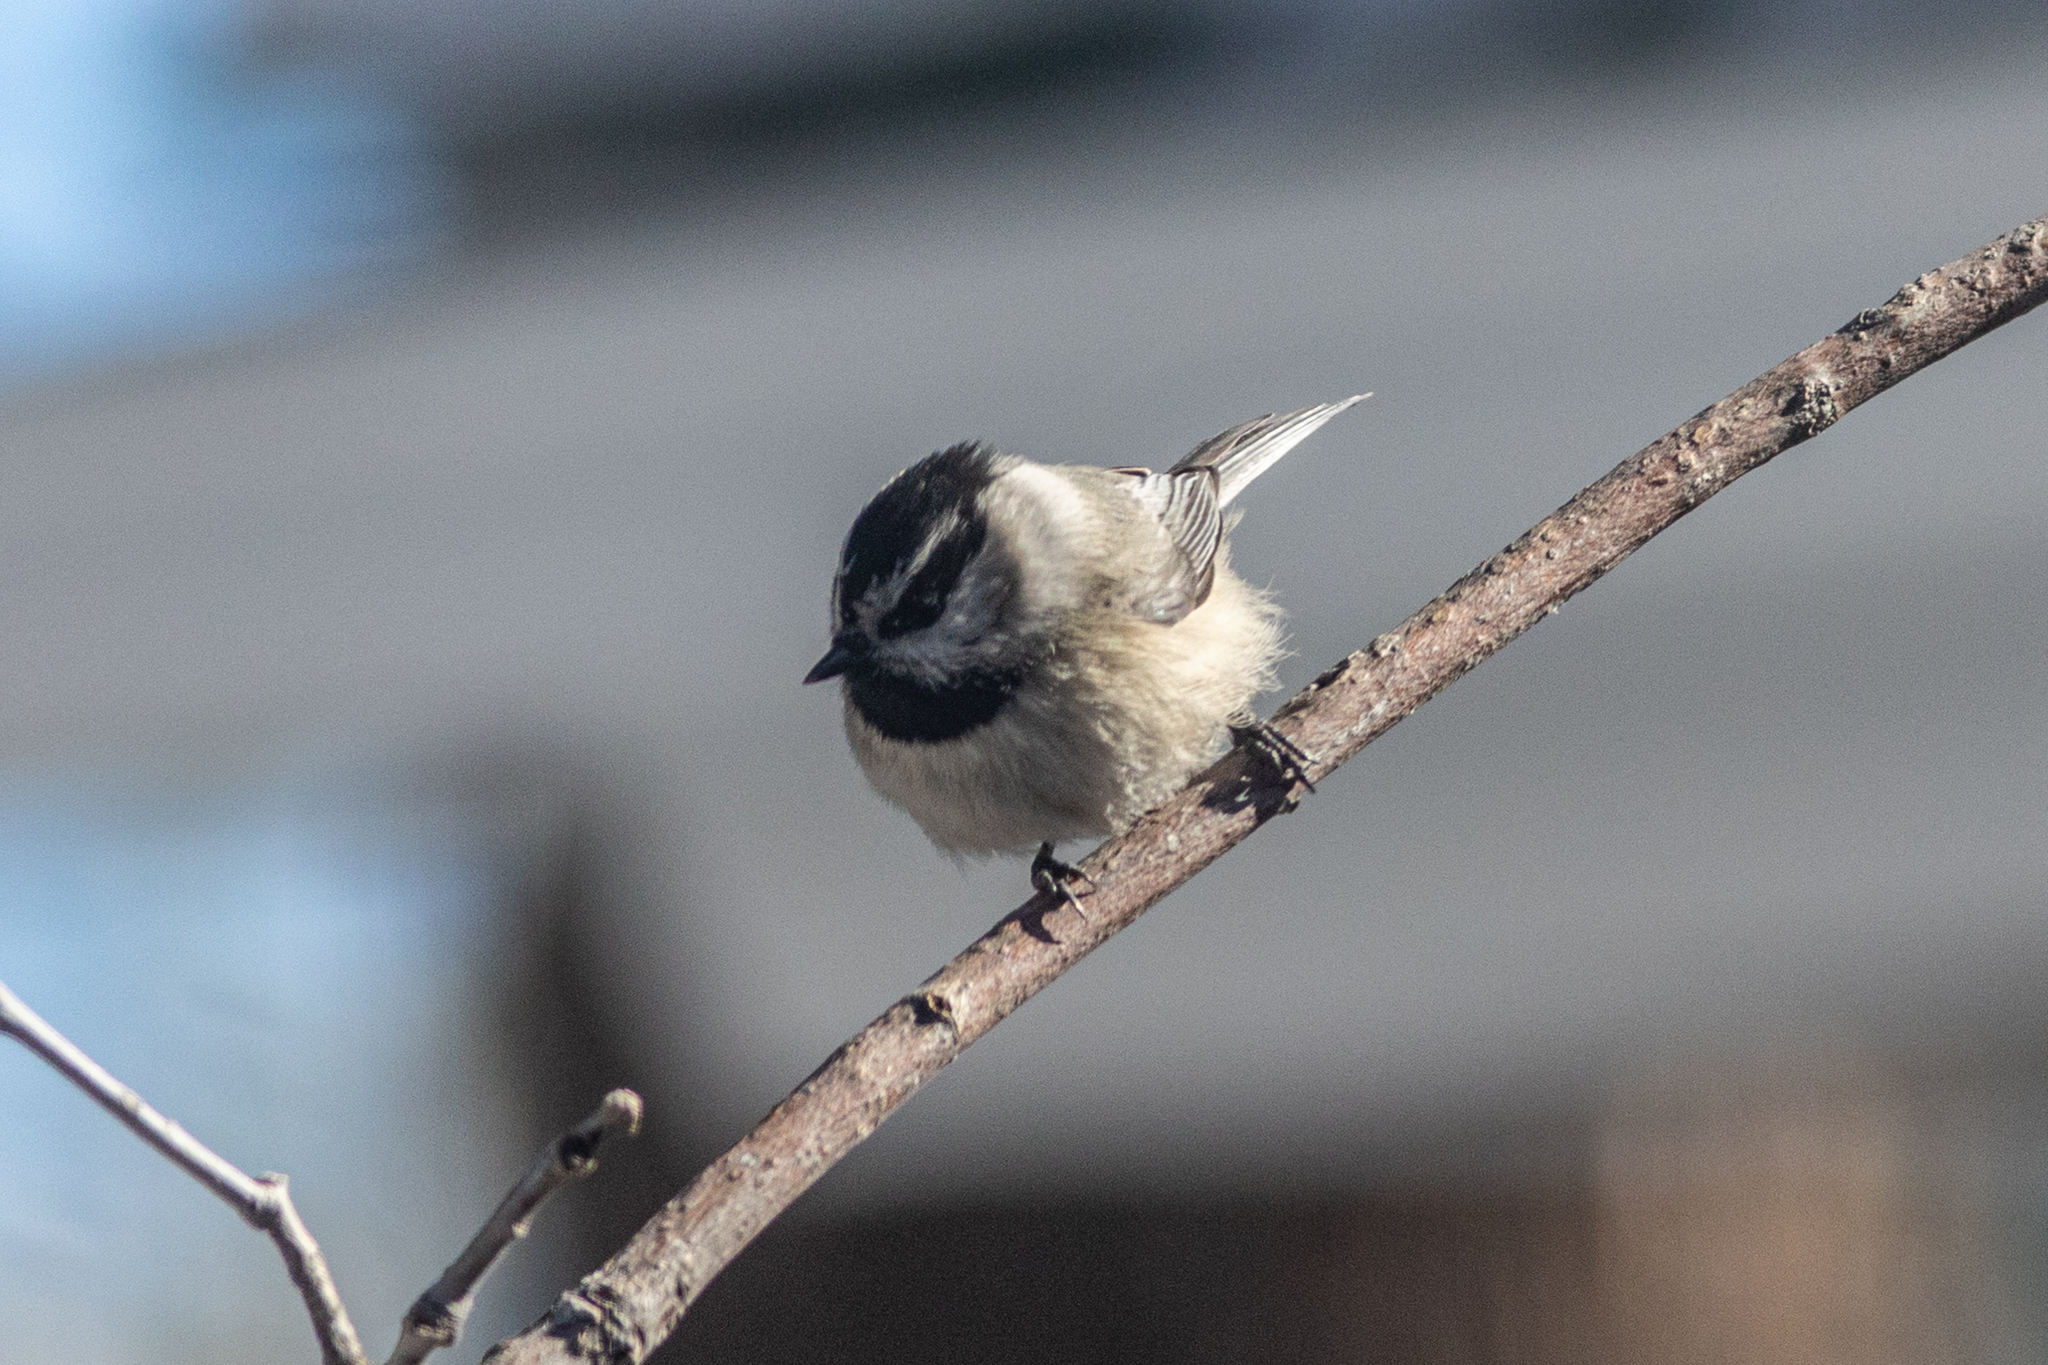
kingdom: Animalia
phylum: Chordata
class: Aves
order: Passeriformes
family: Paridae
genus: Poecile
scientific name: Poecile gambeli
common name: Mountain chickadee
